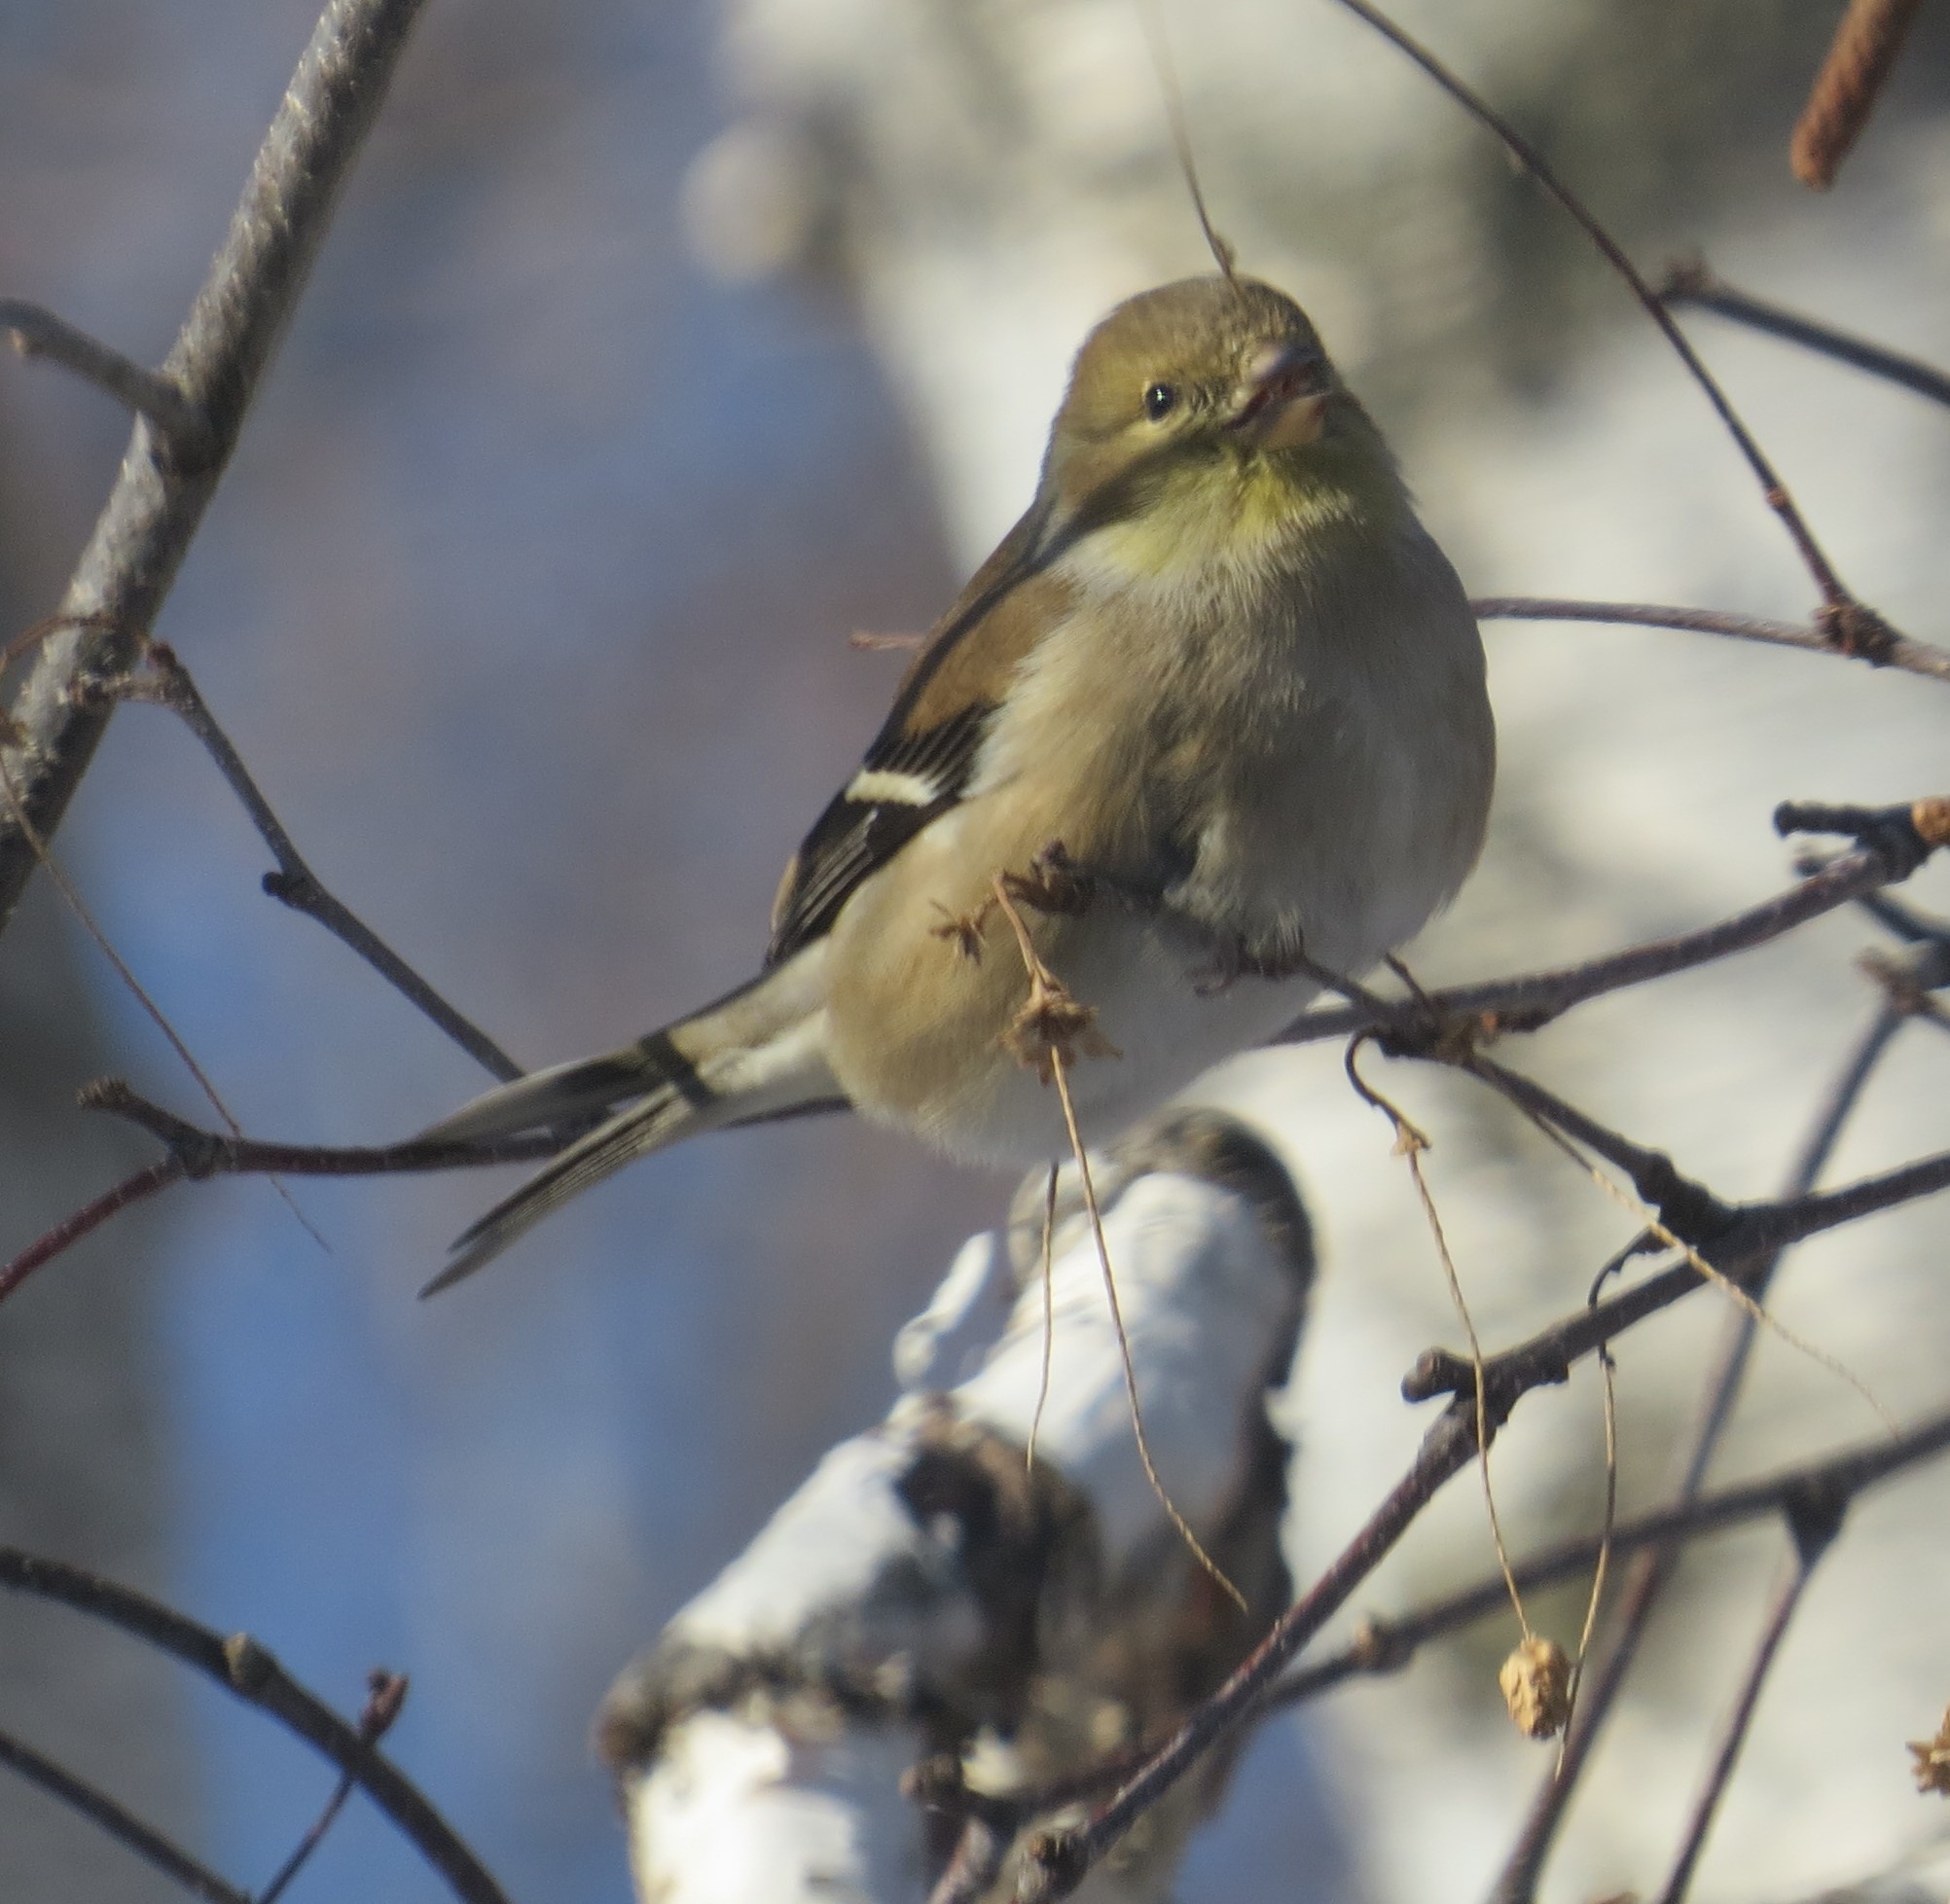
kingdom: Animalia
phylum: Chordata
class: Aves
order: Passeriformes
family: Fringillidae
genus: Spinus
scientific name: Spinus tristis
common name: American goldfinch
